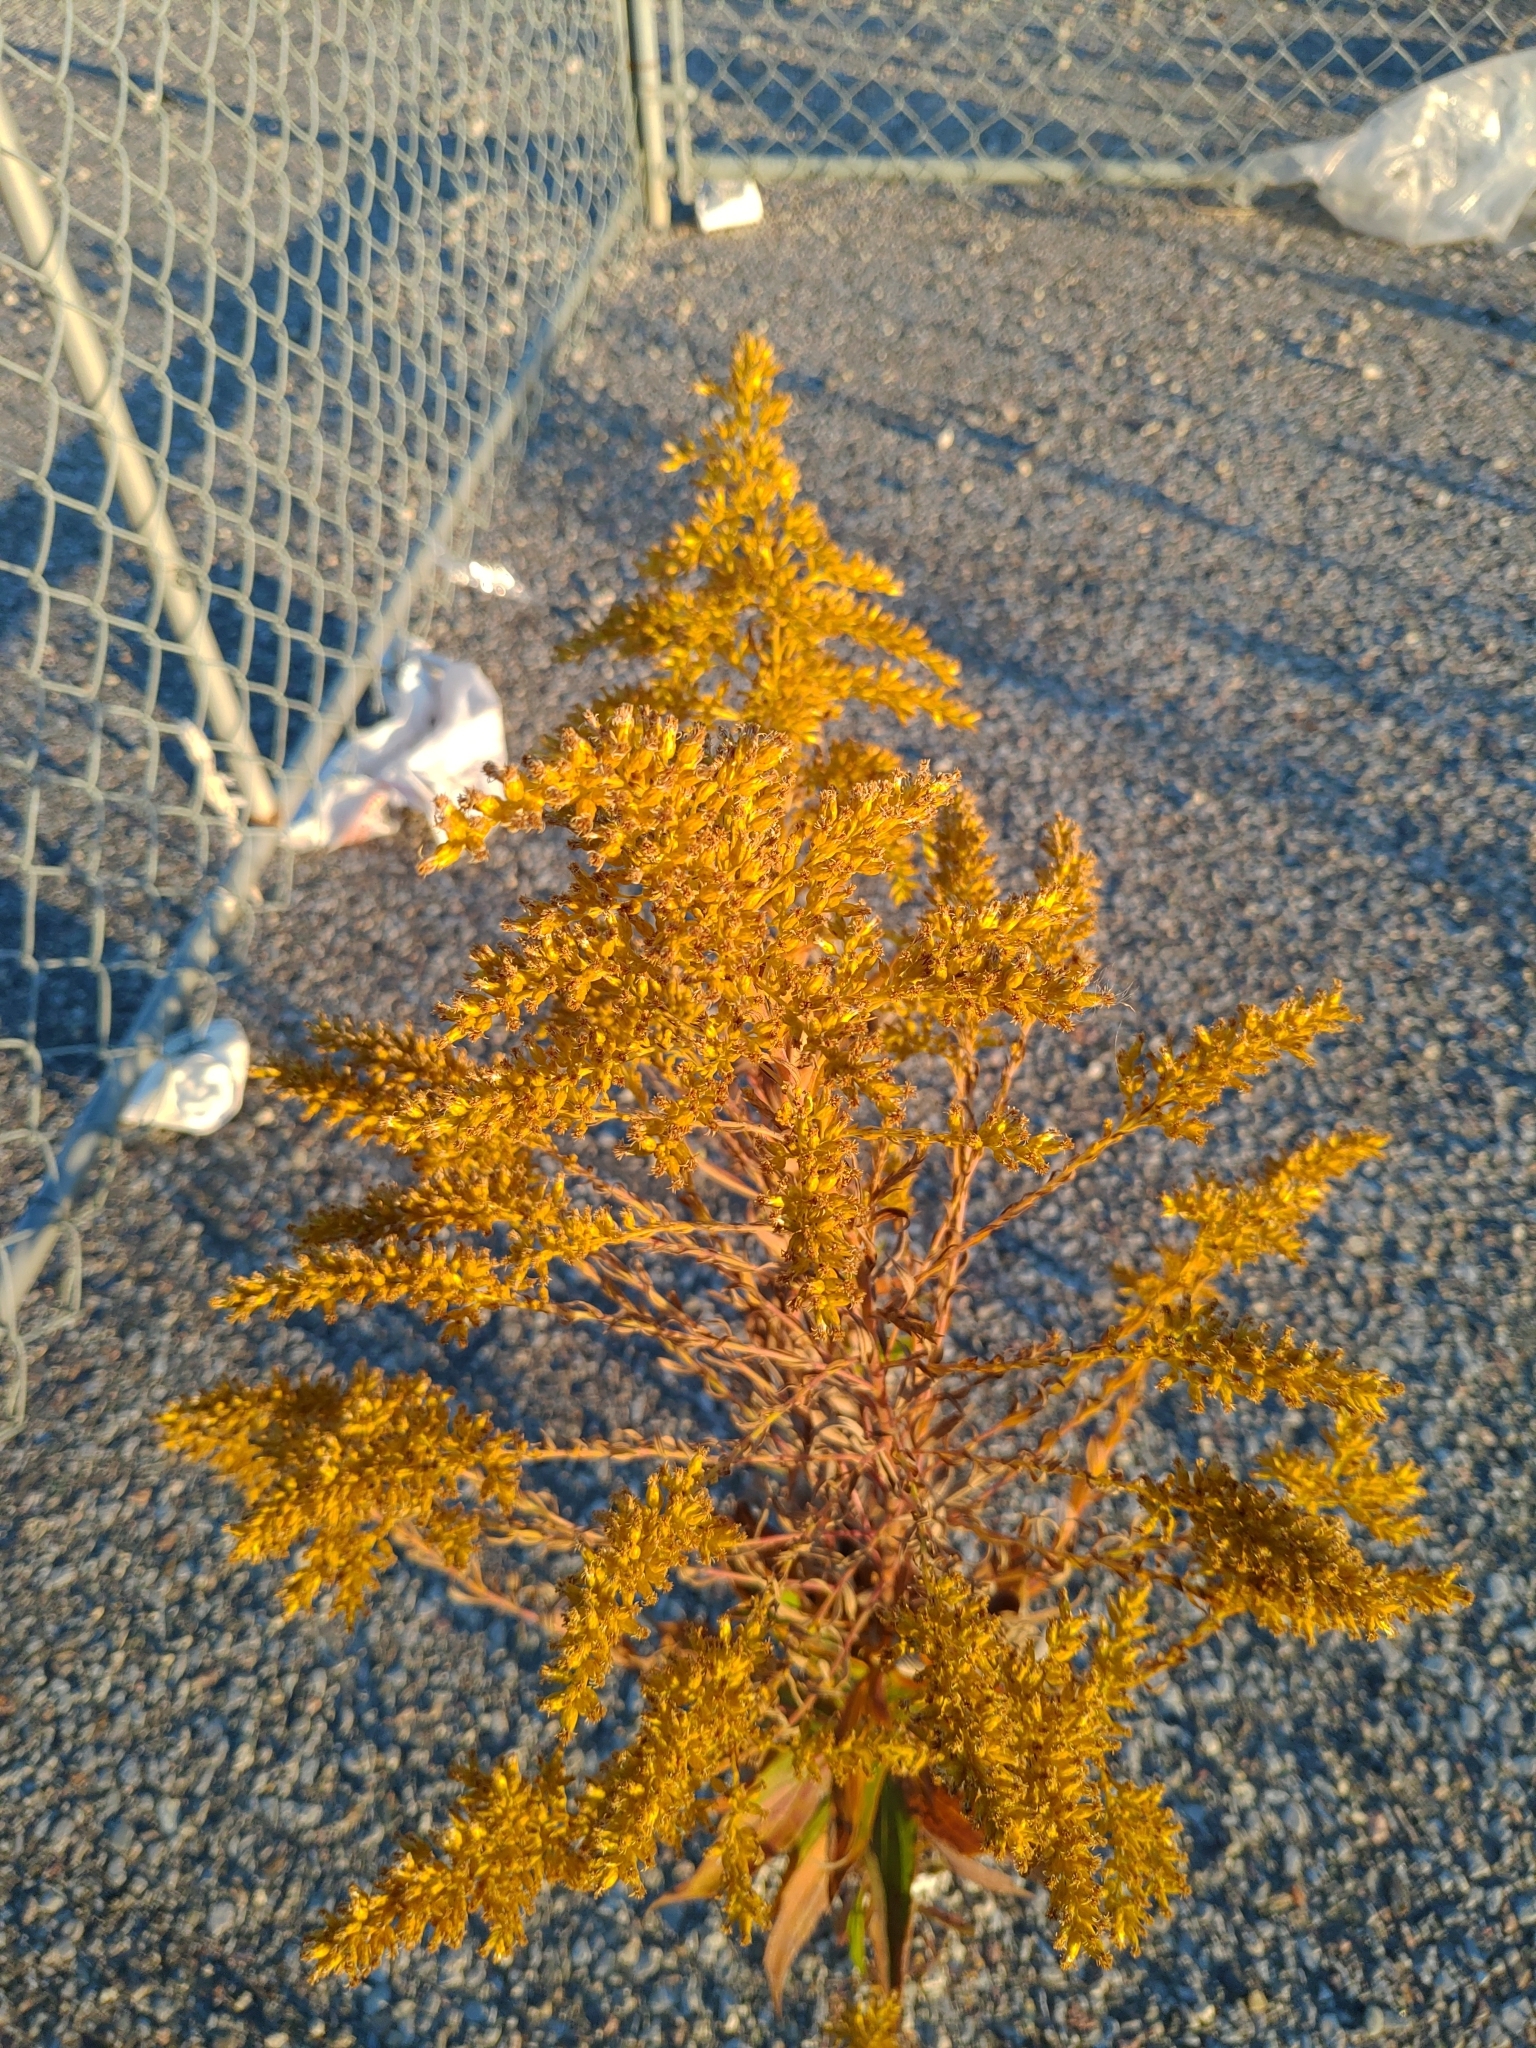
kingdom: Plantae
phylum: Tracheophyta
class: Magnoliopsida
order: Asterales
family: Asteraceae
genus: Solidago
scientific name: Solidago
